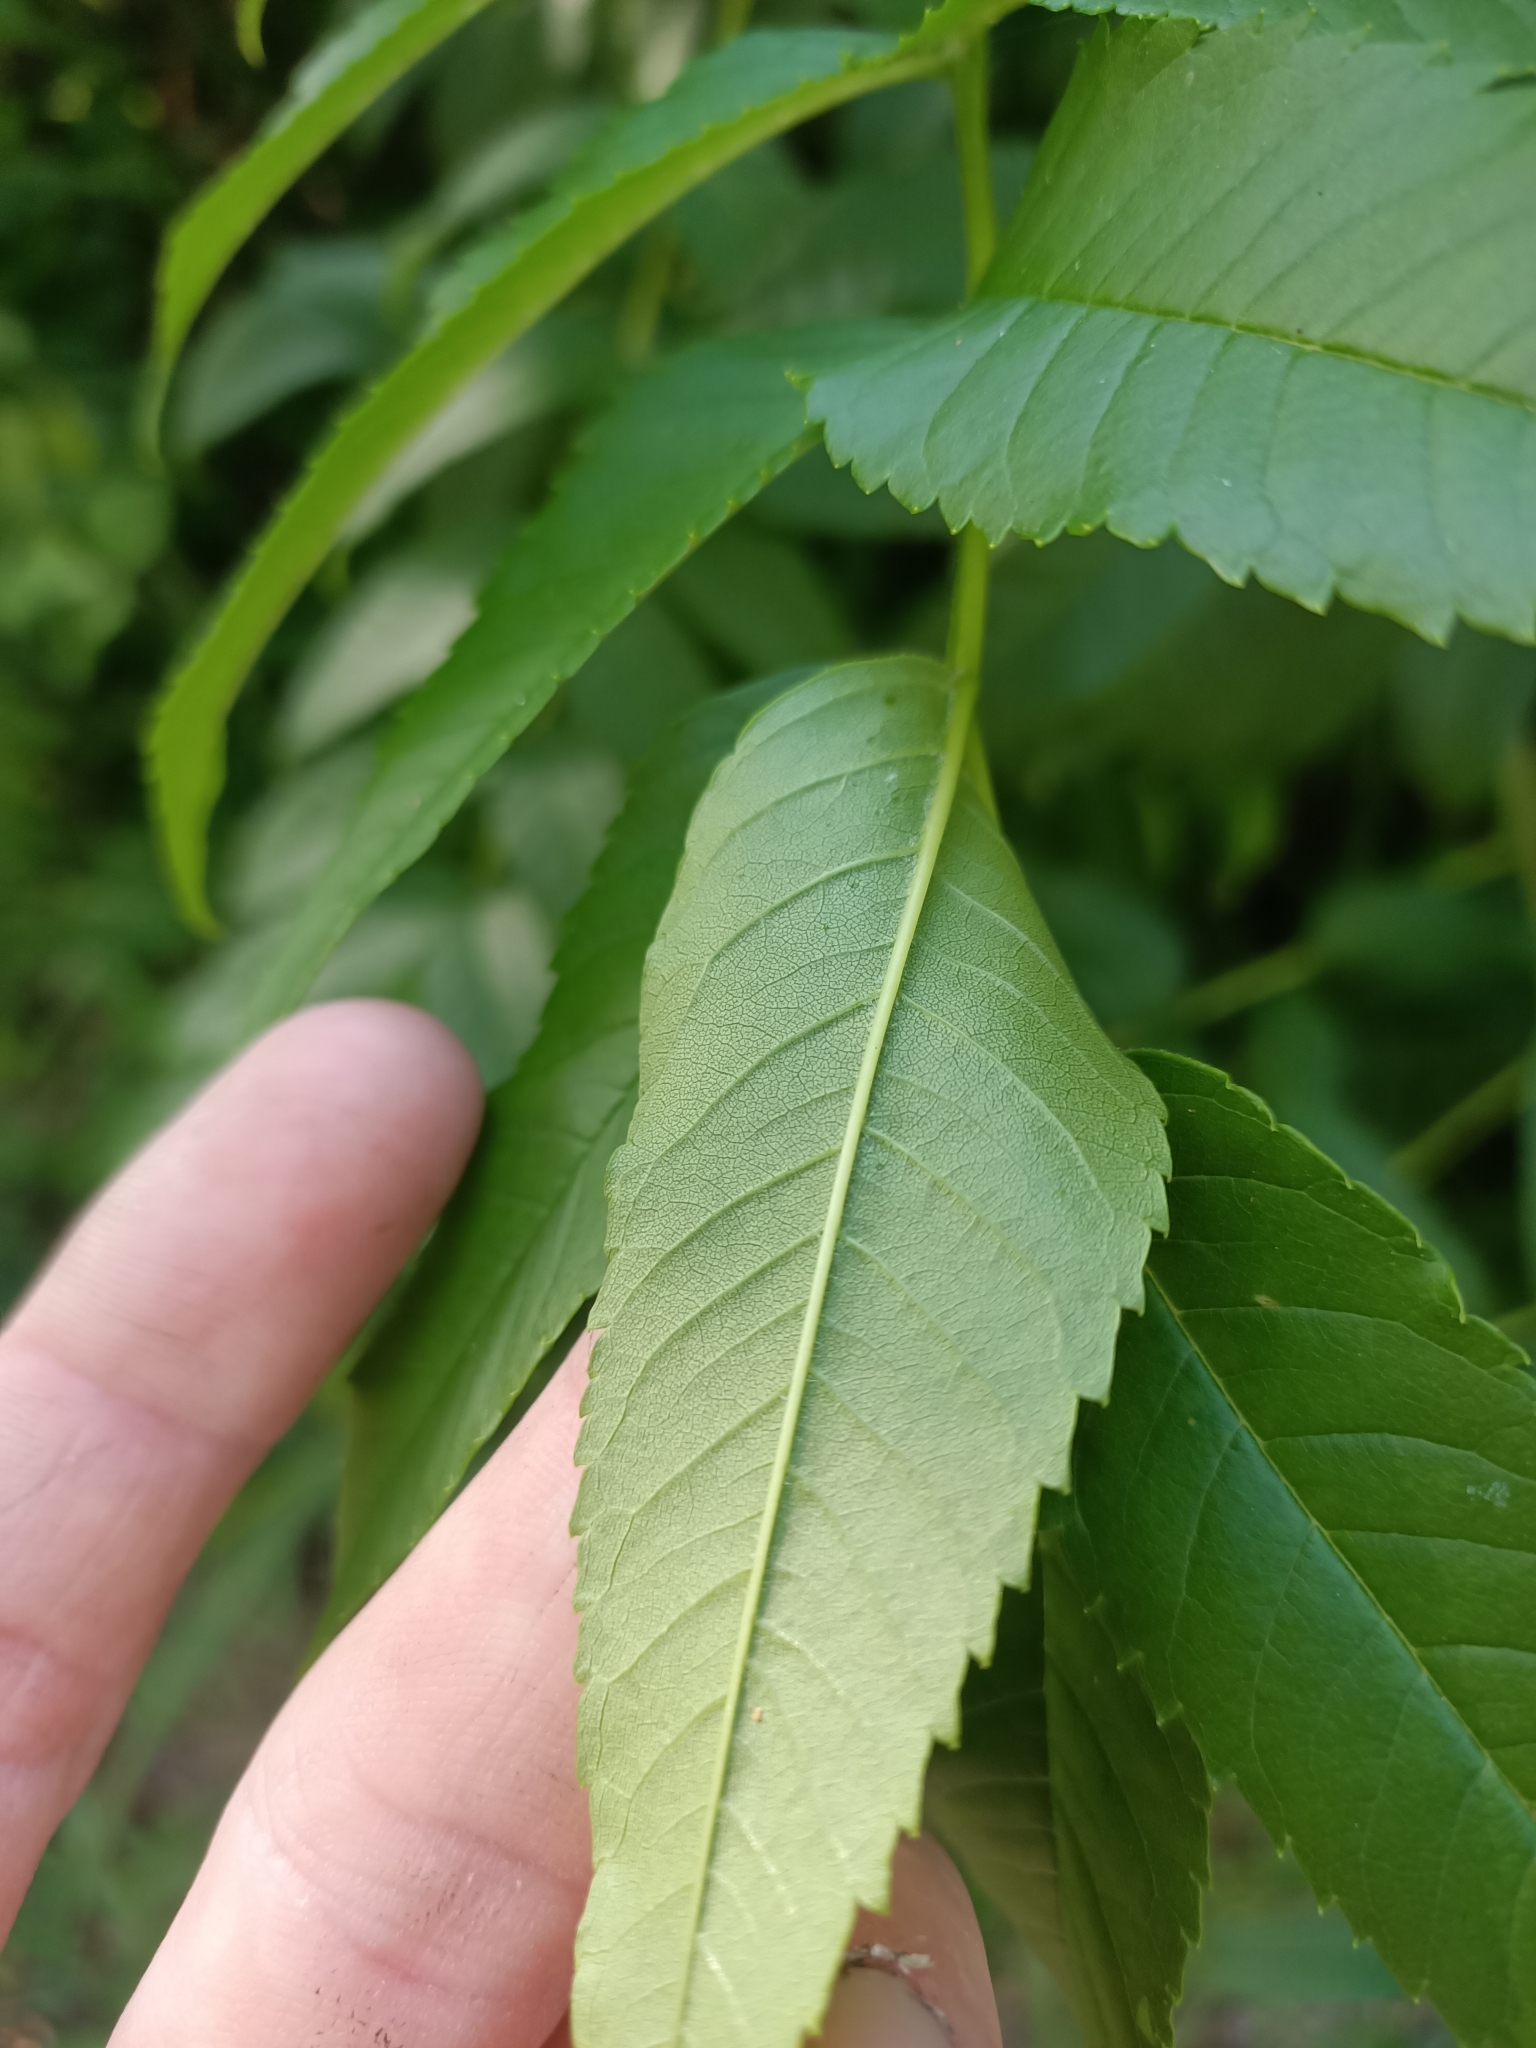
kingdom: Plantae
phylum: Tracheophyta
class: Magnoliopsida
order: Lamiales
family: Bignoniaceae
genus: Tecoma
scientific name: Tecoma stans
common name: Yellow trumpetbush
